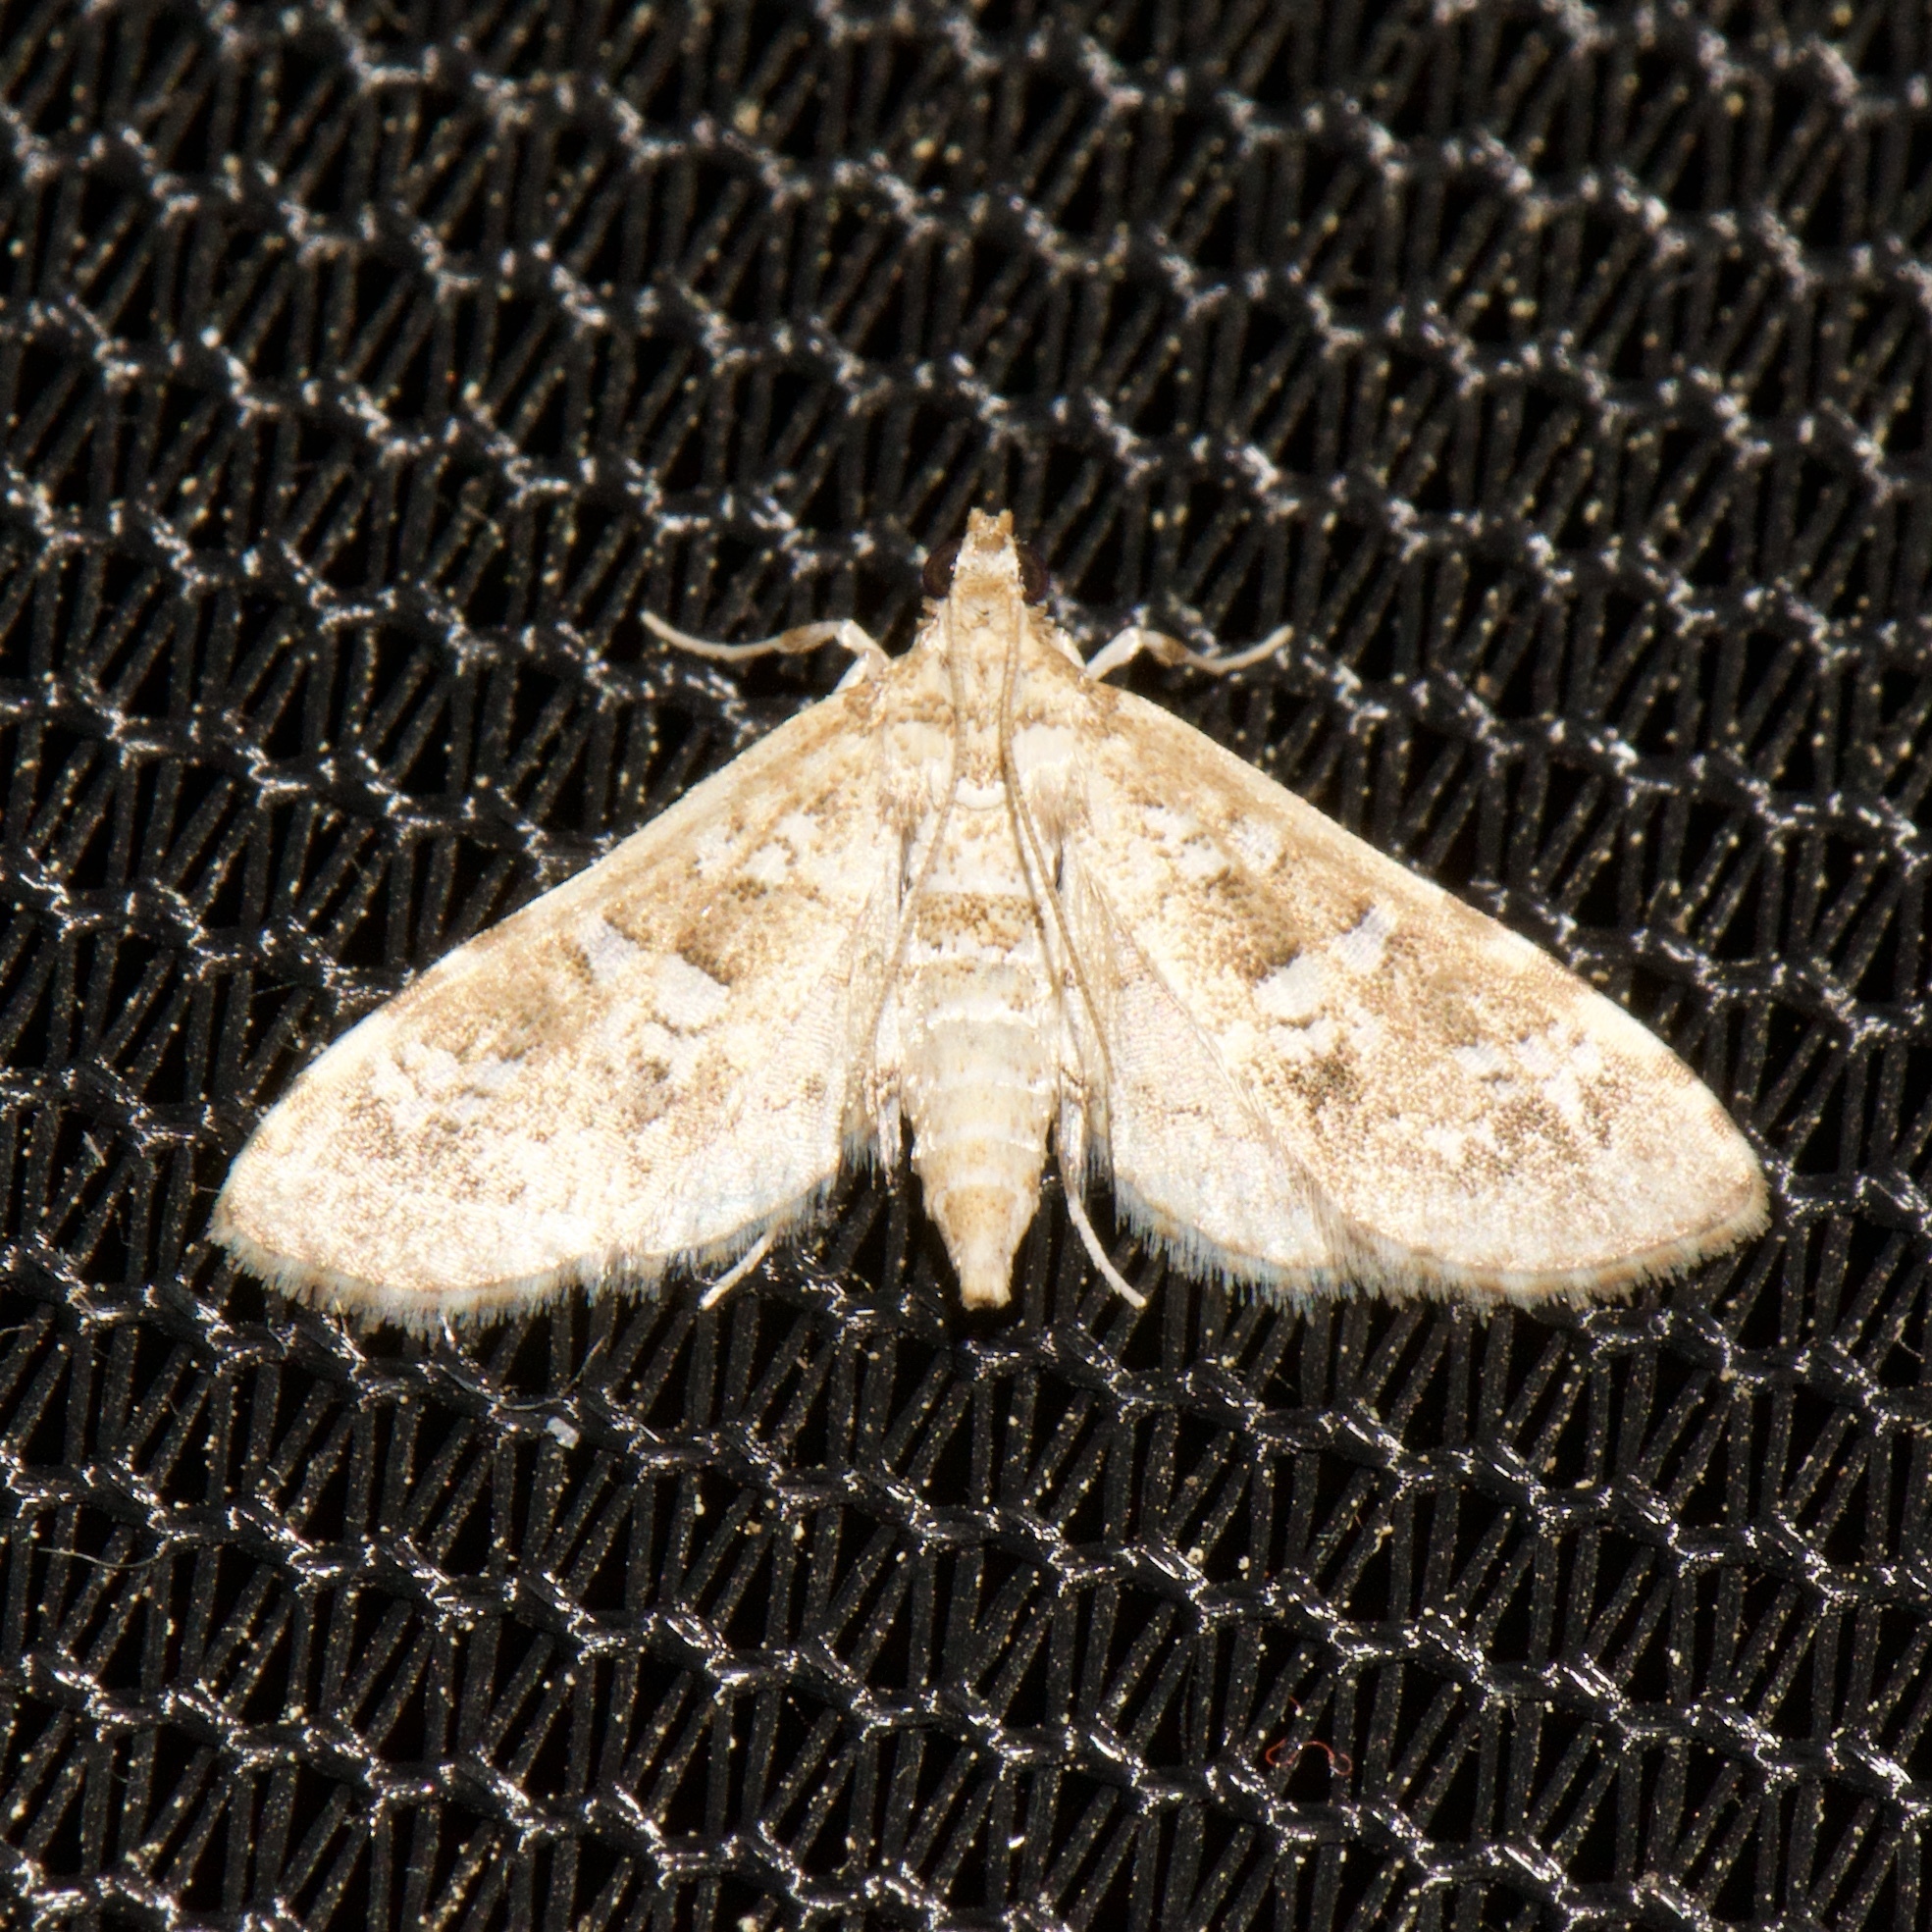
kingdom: Animalia
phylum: Arthropoda
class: Insecta
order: Lepidoptera
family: Crambidae
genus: Samea
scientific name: Samea multiplicalis
